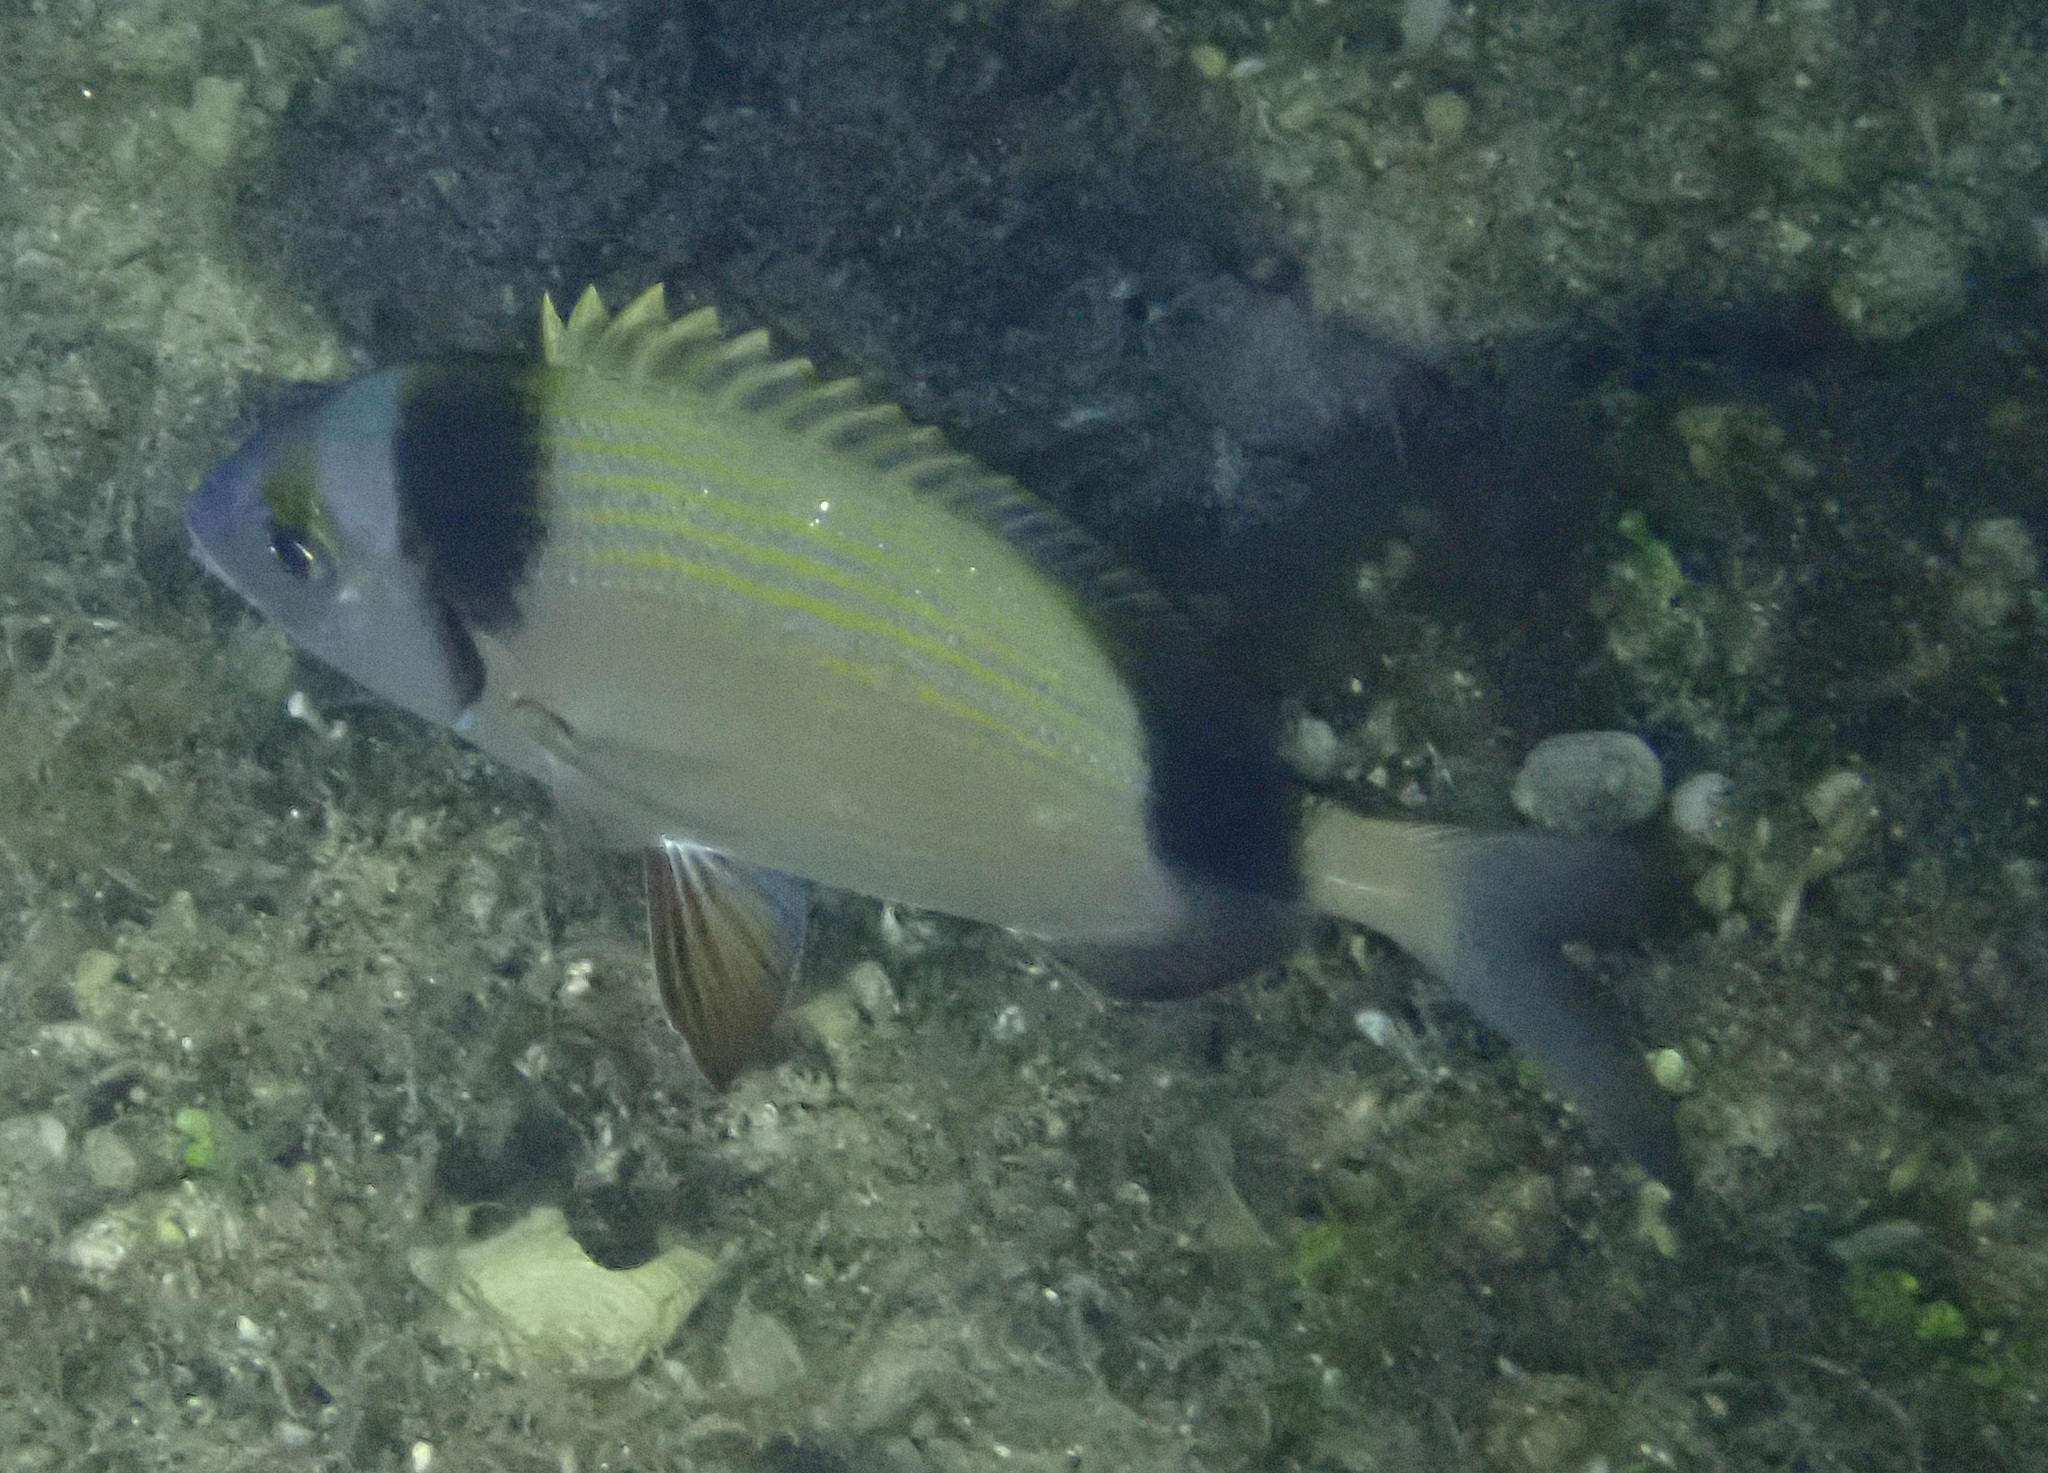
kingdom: Animalia
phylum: Chordata
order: Perciformes
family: Sparidae
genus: Diplodus
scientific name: Diplodus vulgaris
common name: Common two-banded seabream
